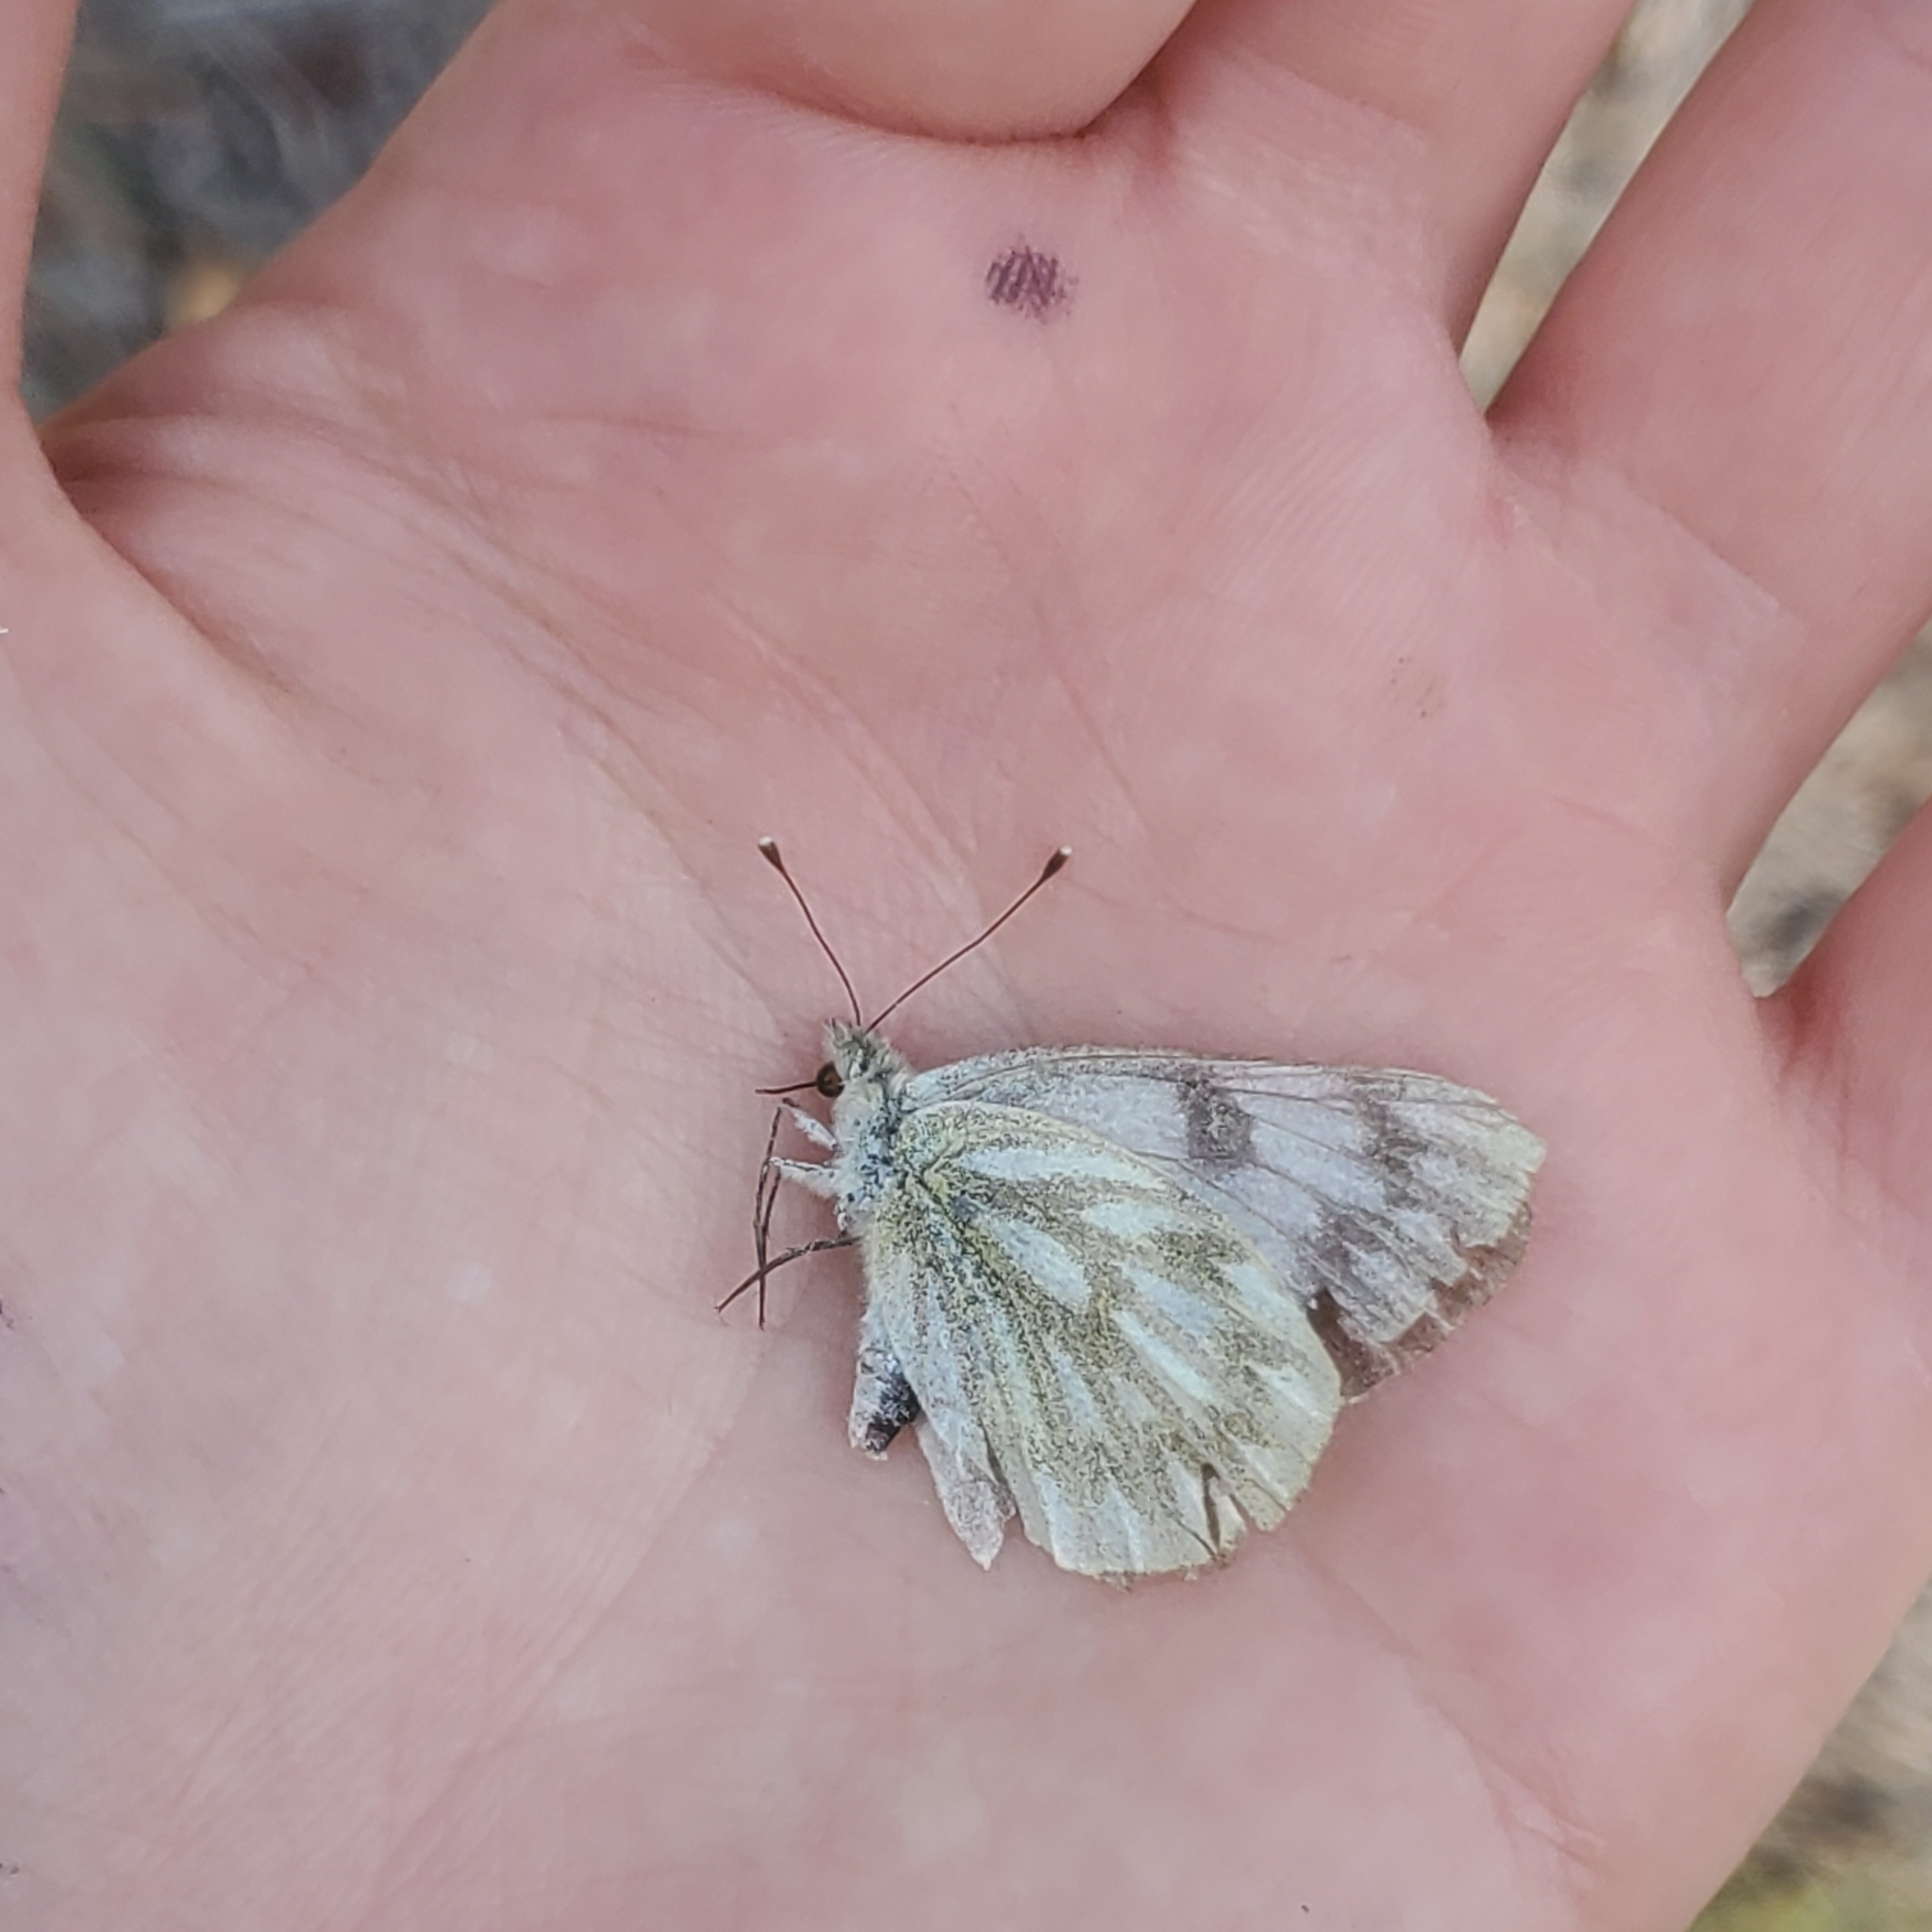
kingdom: Animalia
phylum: Arthropoda
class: Insecta
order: Lepidoptera
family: Pieridae
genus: Pontia
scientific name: Pontia occidentalis
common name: Western white
